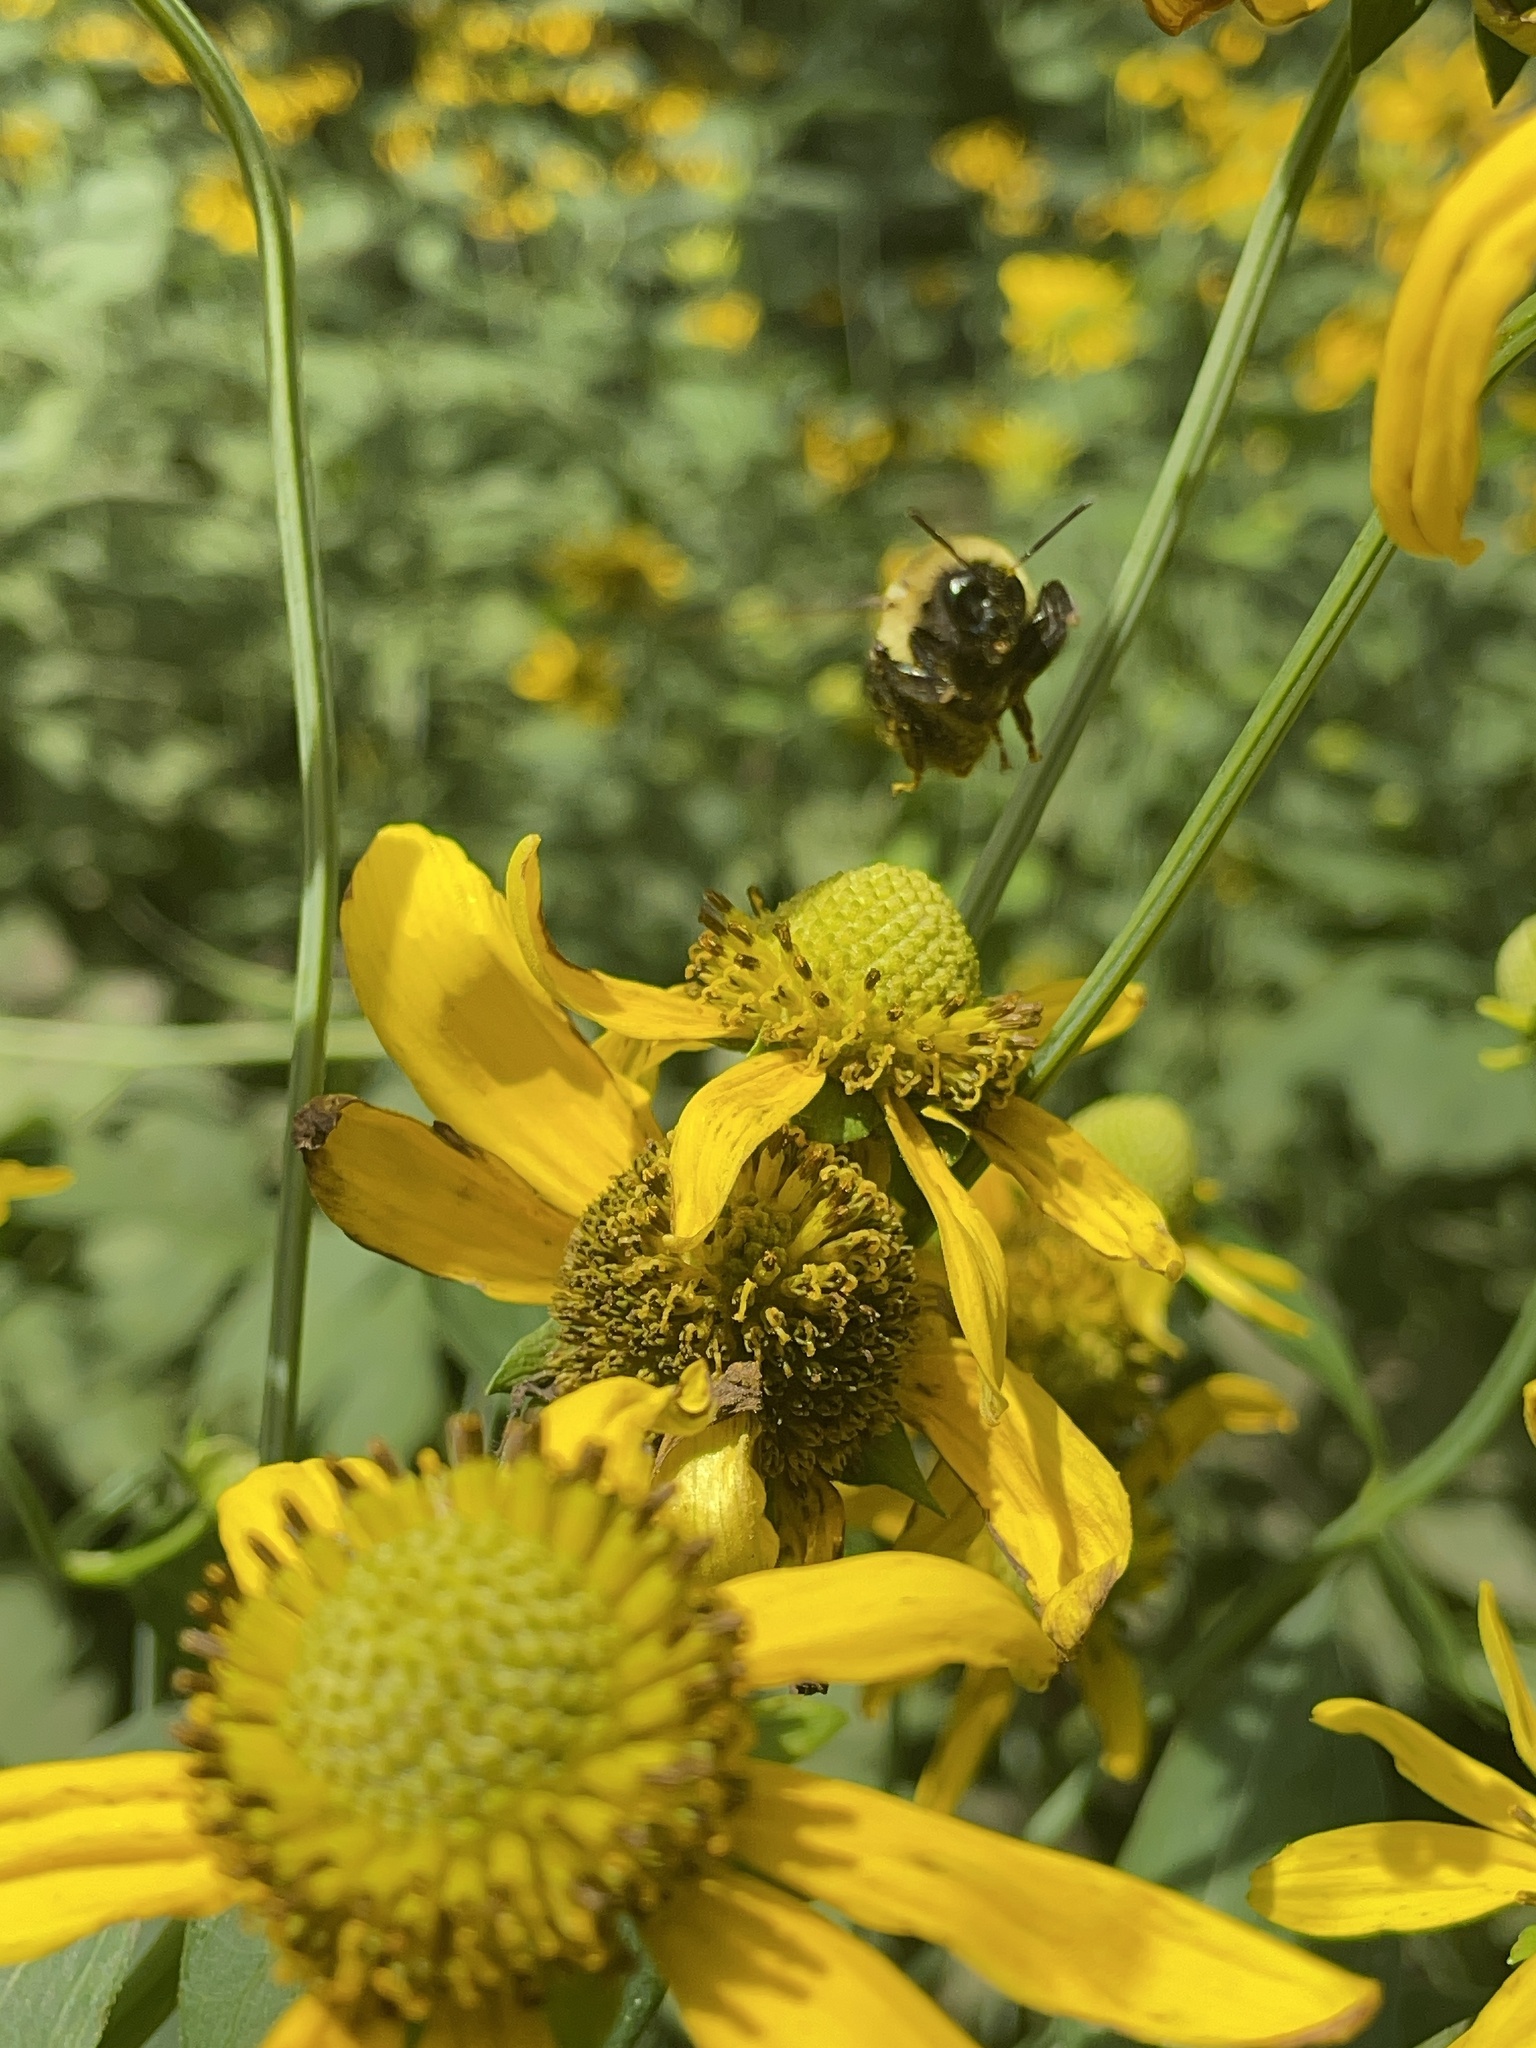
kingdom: Animalia
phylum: Arthropoda
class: Insecta
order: Hymenoptera
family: Apidae
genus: Bombus
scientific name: Bombus impatiens
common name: Common eastern bumble bee
